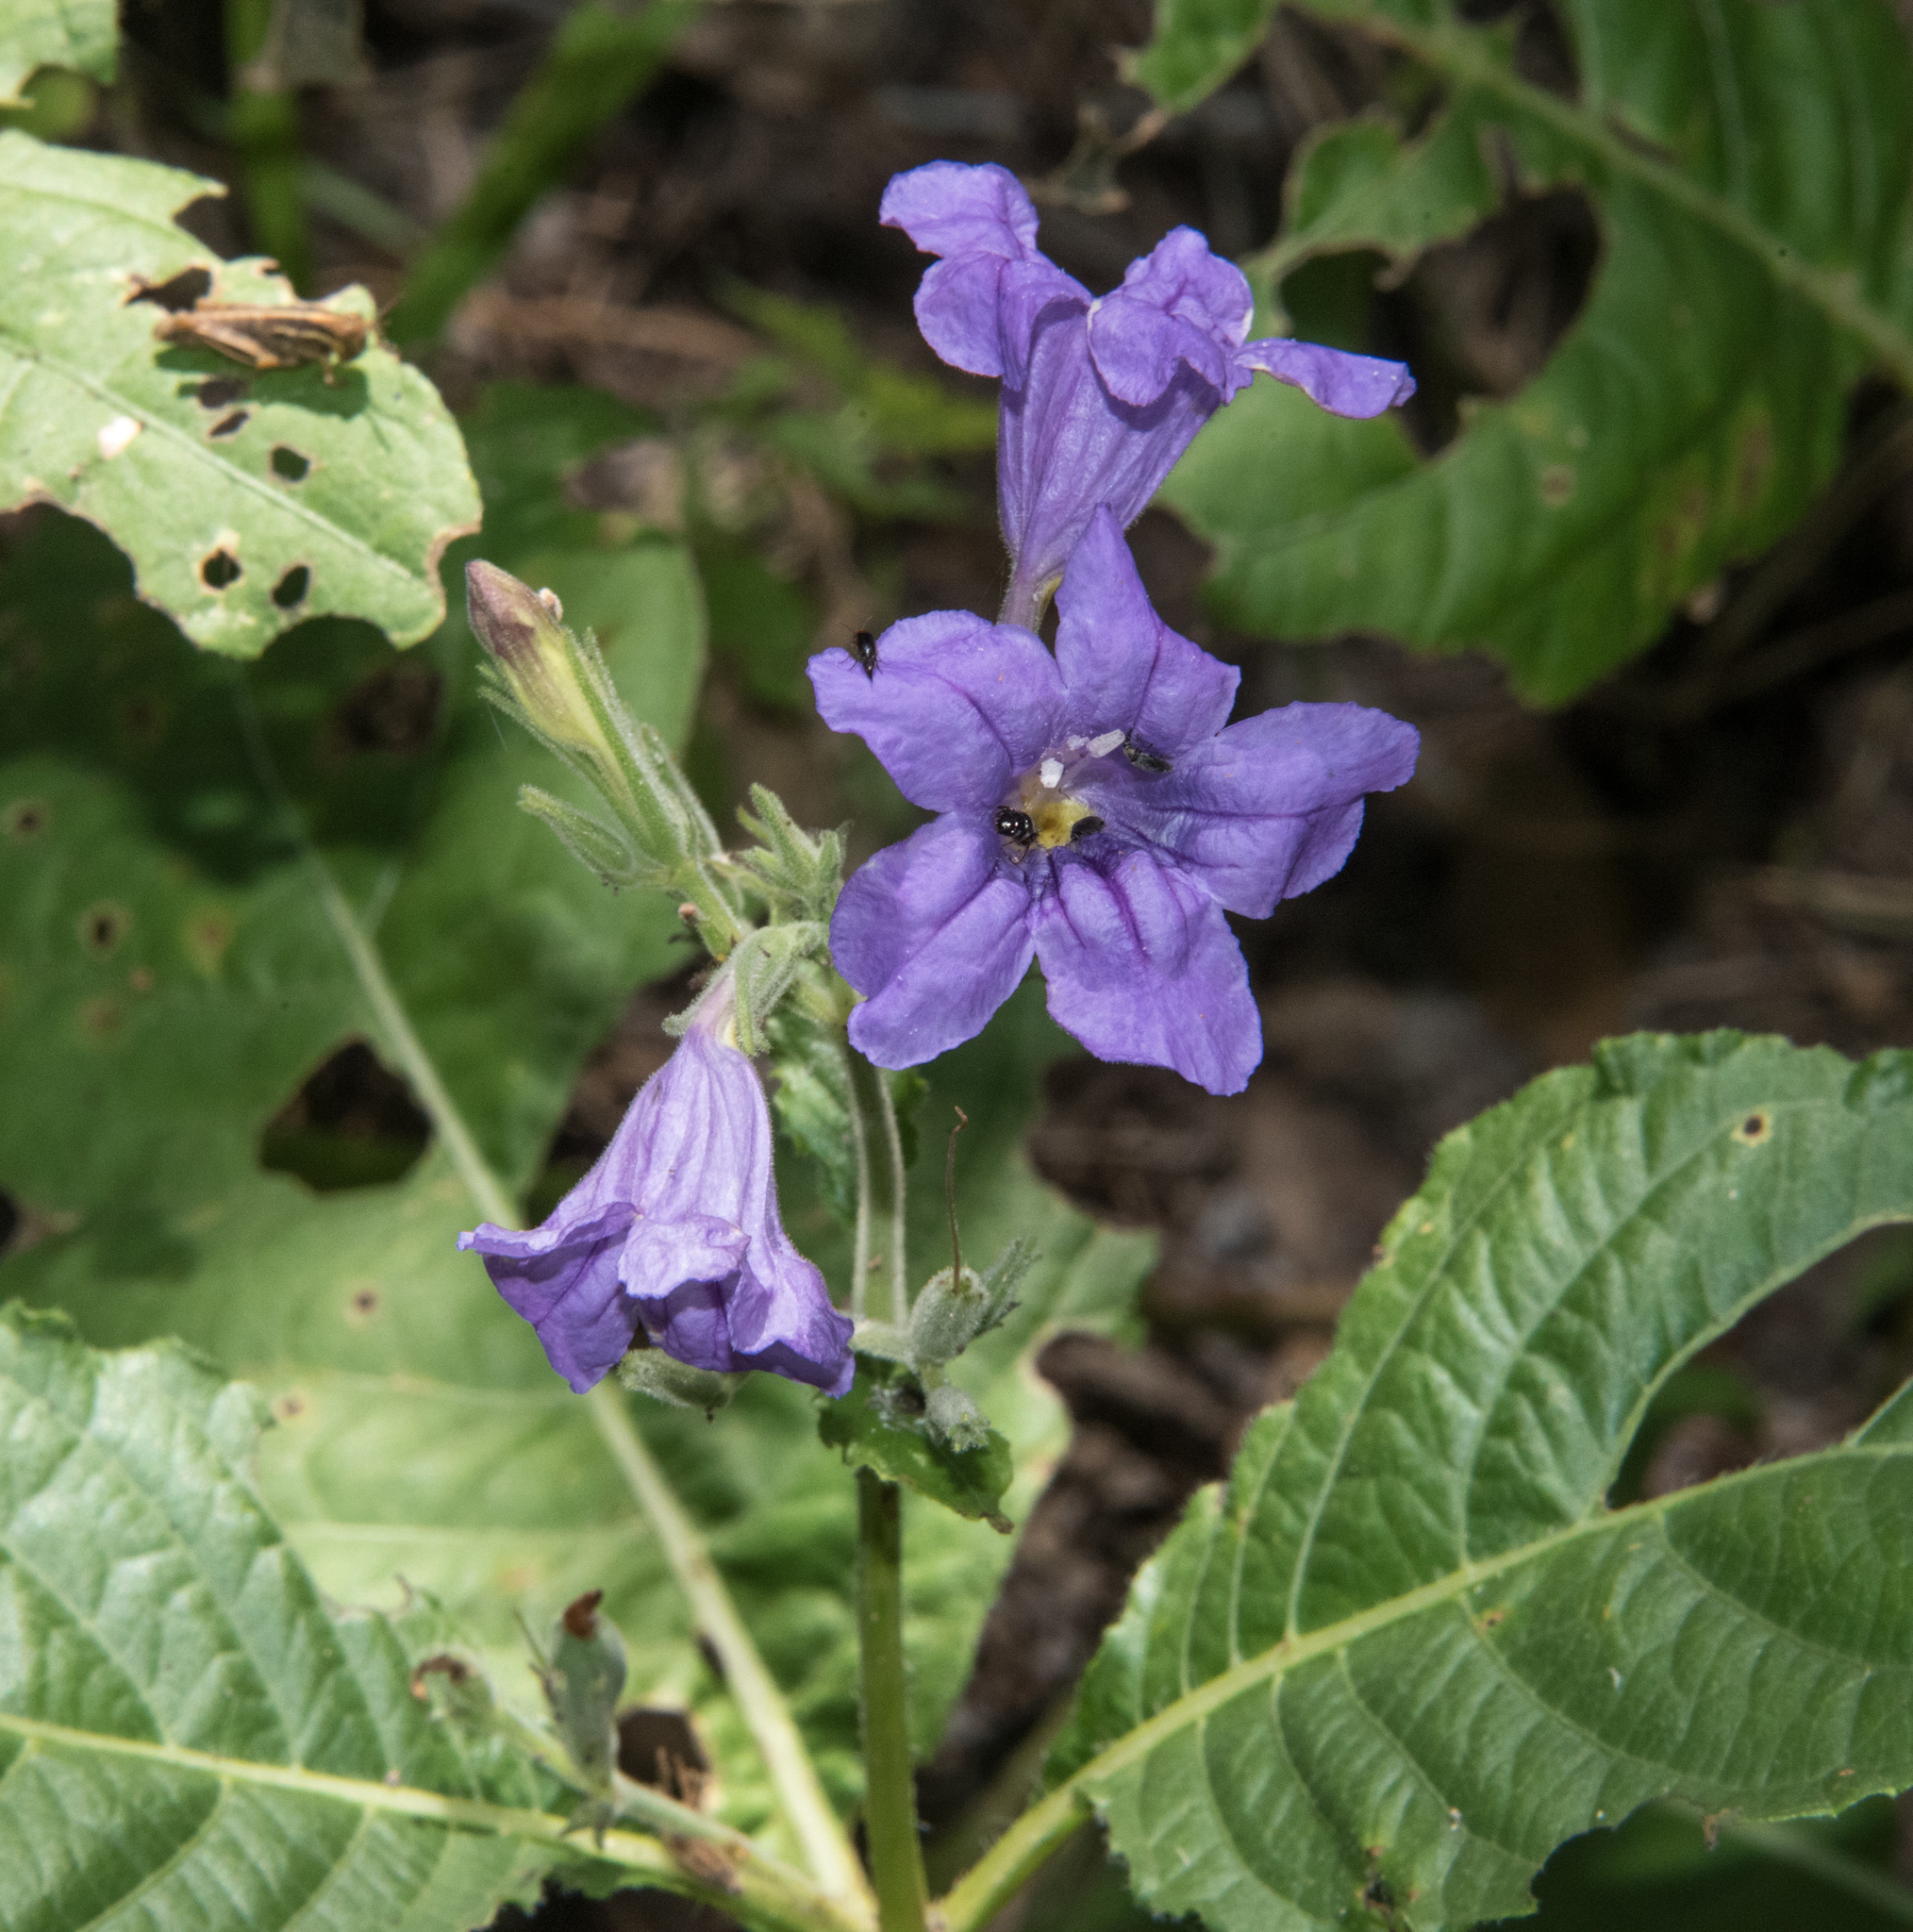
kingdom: Plantae
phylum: Tracheophyta
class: Magnoliopsida
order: Lamiales
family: Acanthaceae
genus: Ruellia
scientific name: Ruellia ciliatiflora
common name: Hairyflower wild petunia
